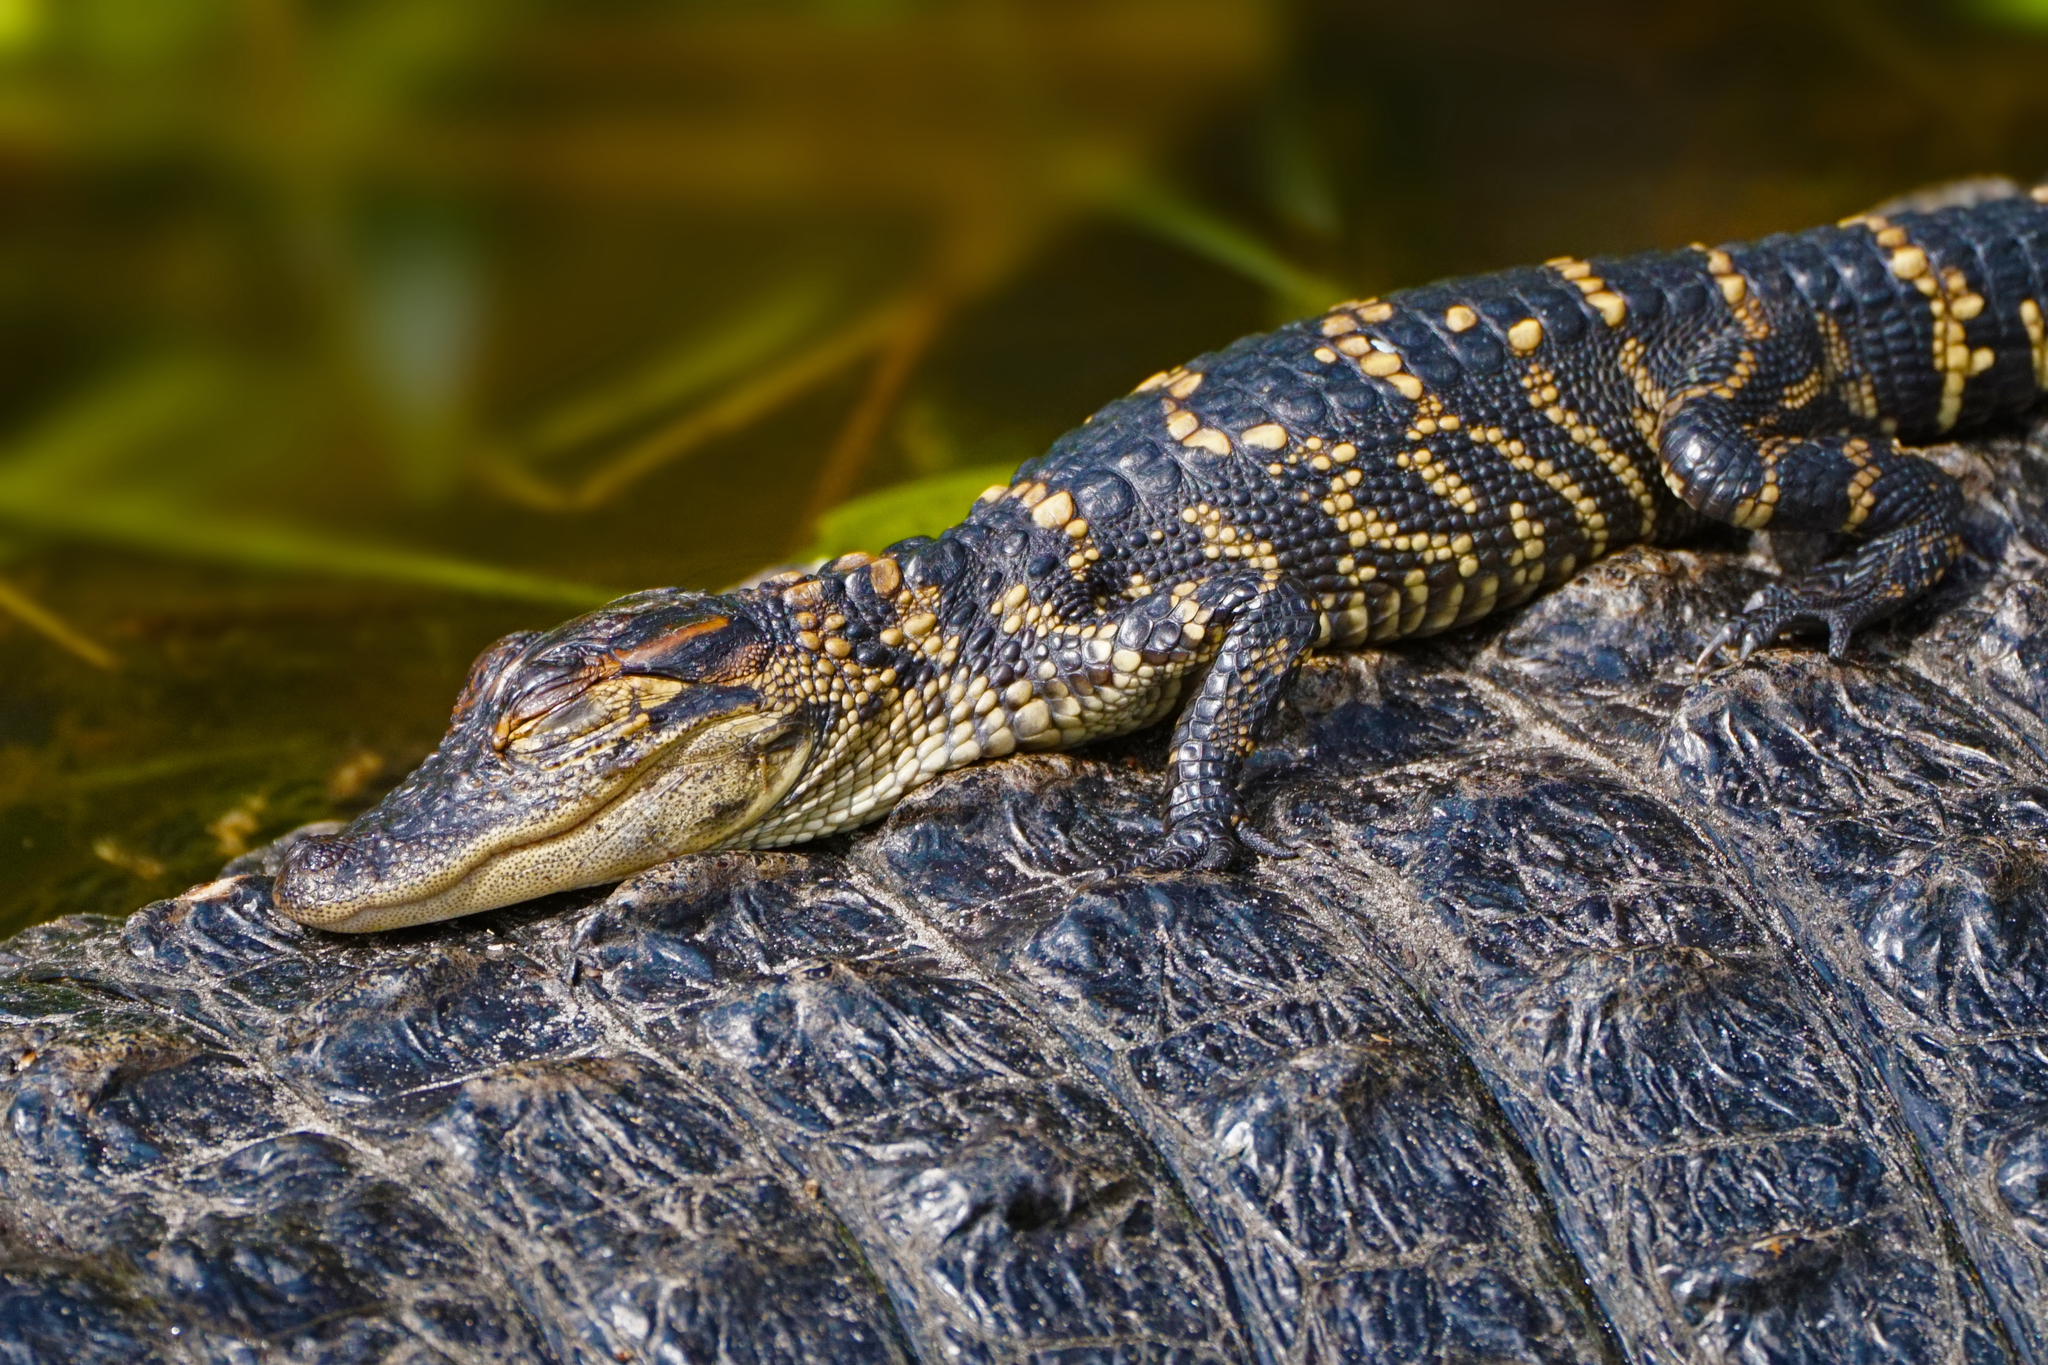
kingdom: Animalia
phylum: Chordata
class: Crocodylia
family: Alligatoridae
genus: Alligator
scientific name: Alligator mississippiensis
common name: American alligator
